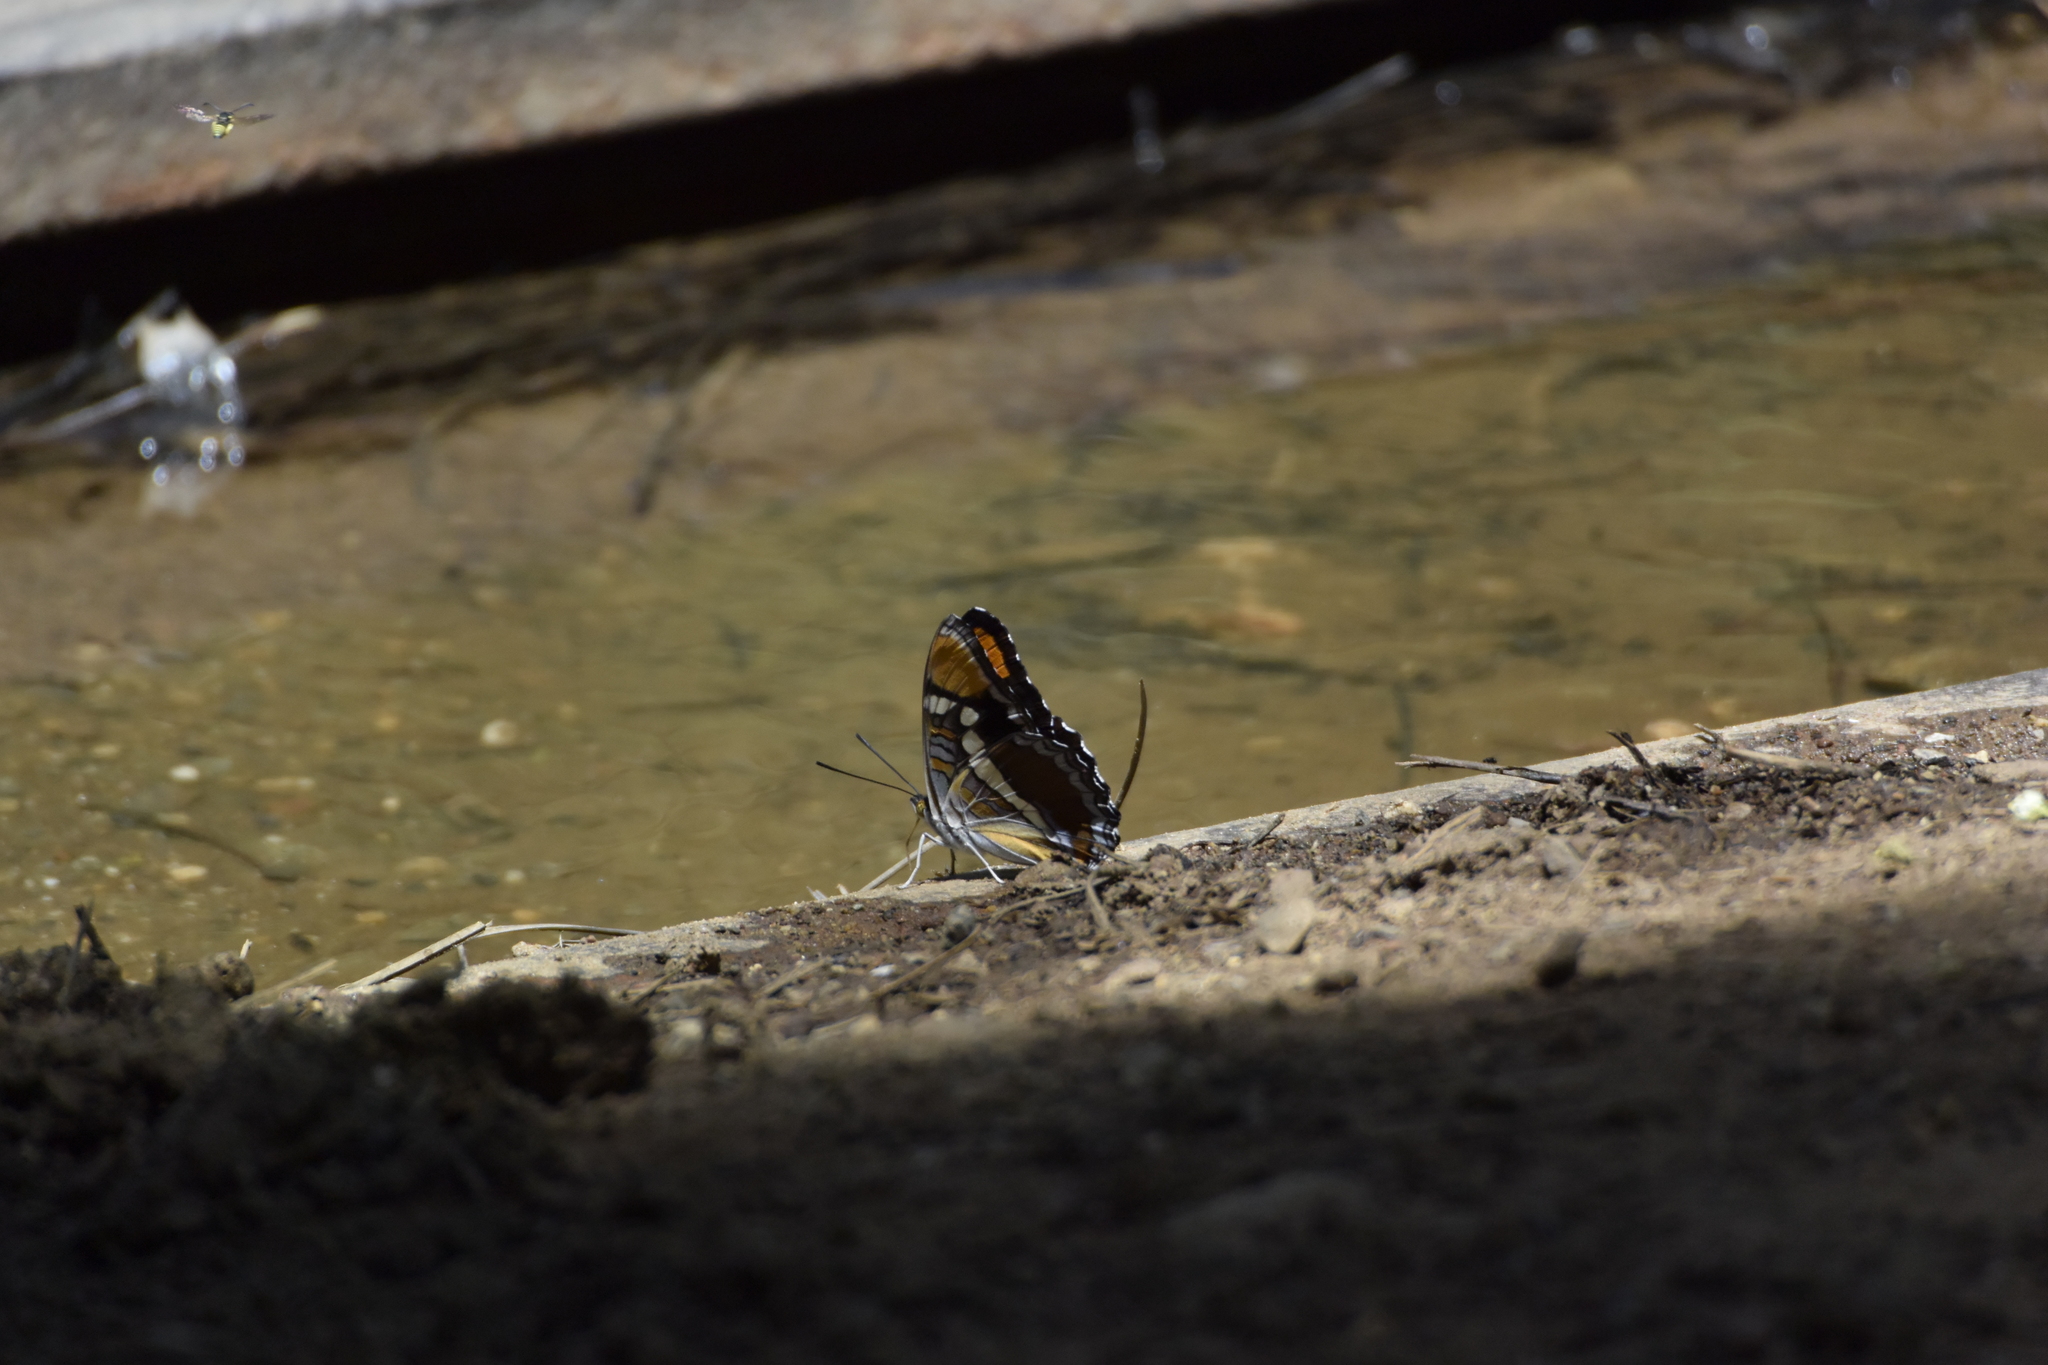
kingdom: Animalia
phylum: Arthropoda
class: Insecta
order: Lepidoptera
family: Nymphalidae
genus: Limenitis
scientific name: Limenitis bredowii
